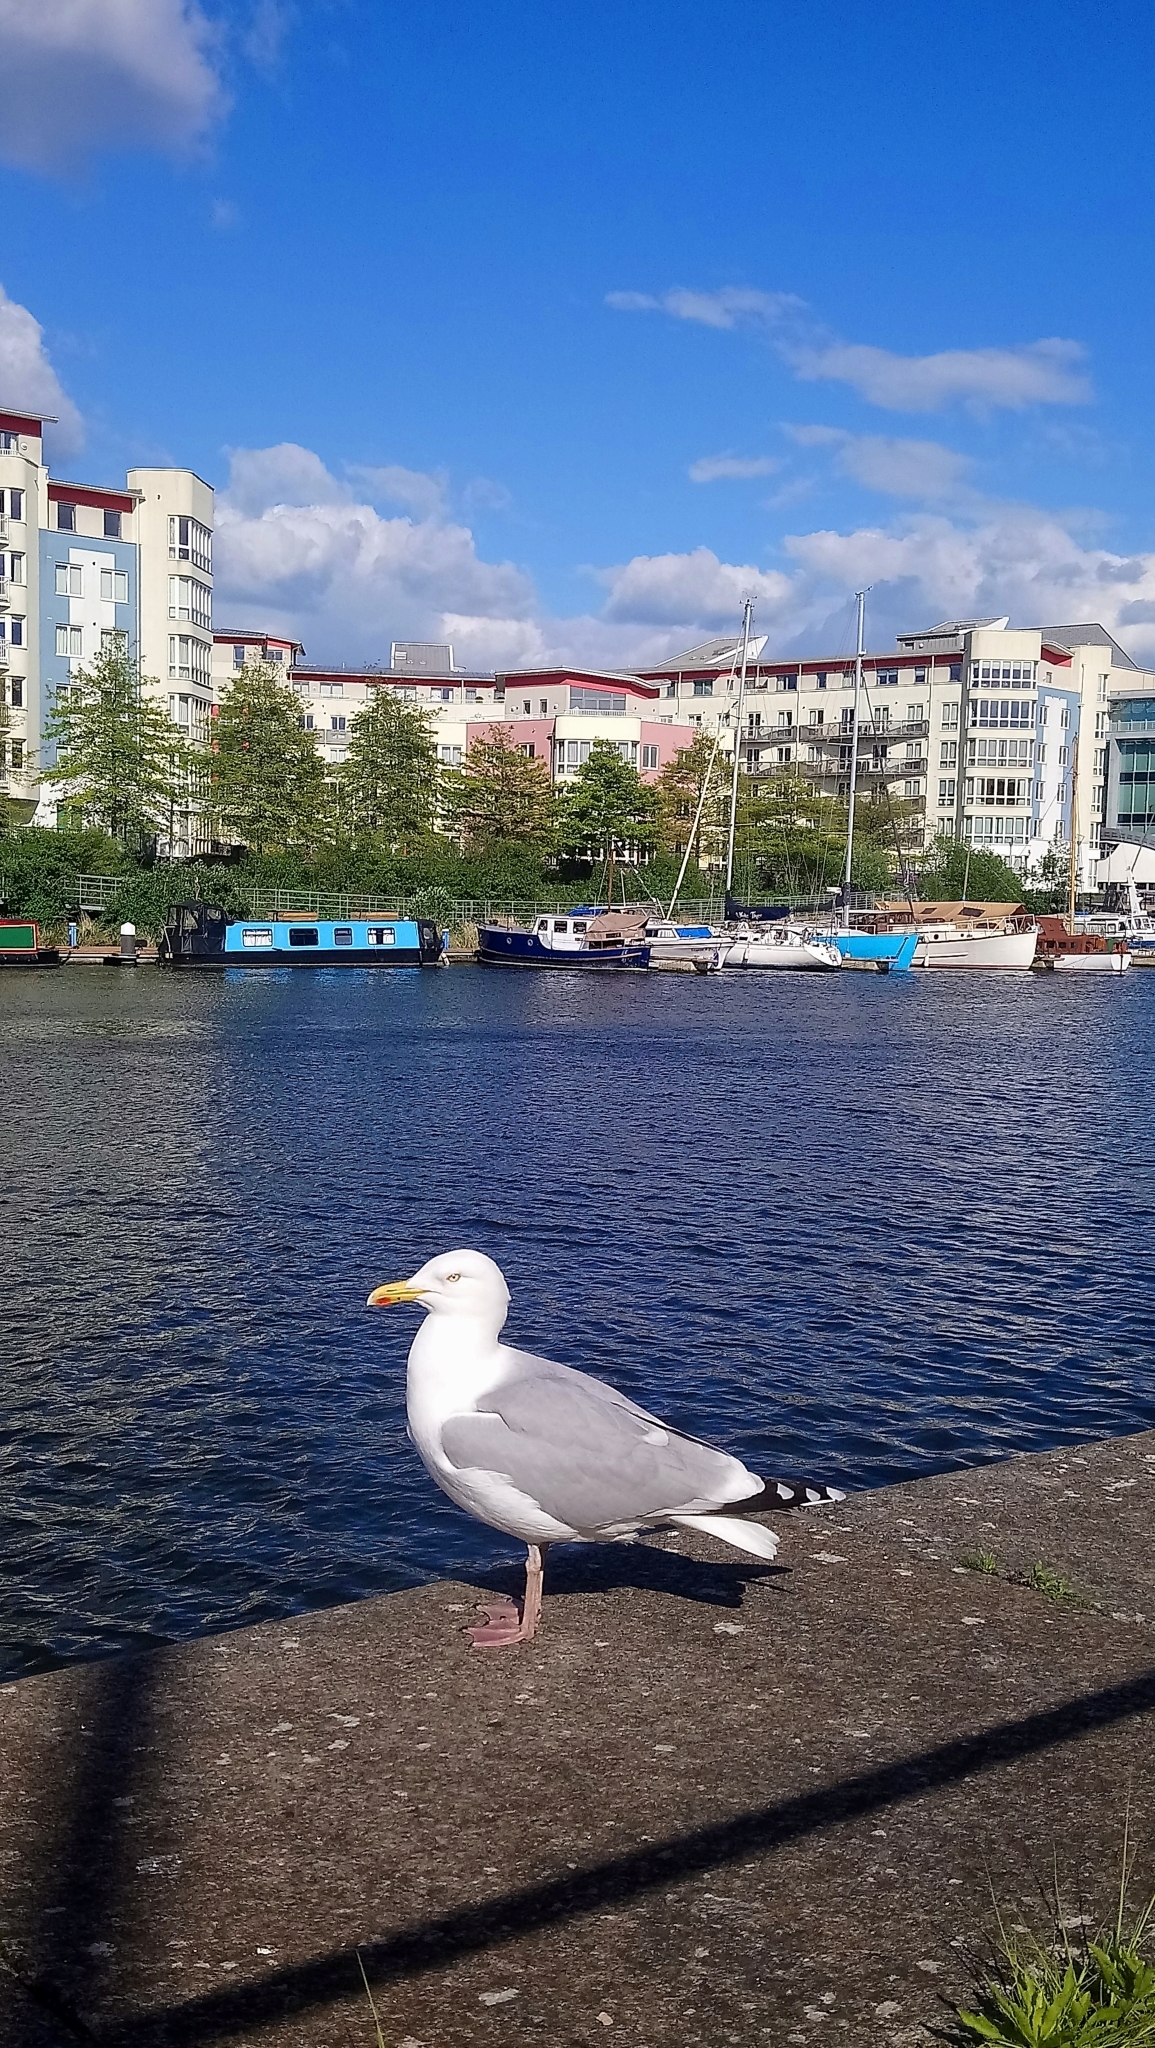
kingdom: Animalia
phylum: Chordata
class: Aves
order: Charadriiformes
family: Laridae
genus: Larus
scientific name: Larus argentatus
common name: Herring gull
